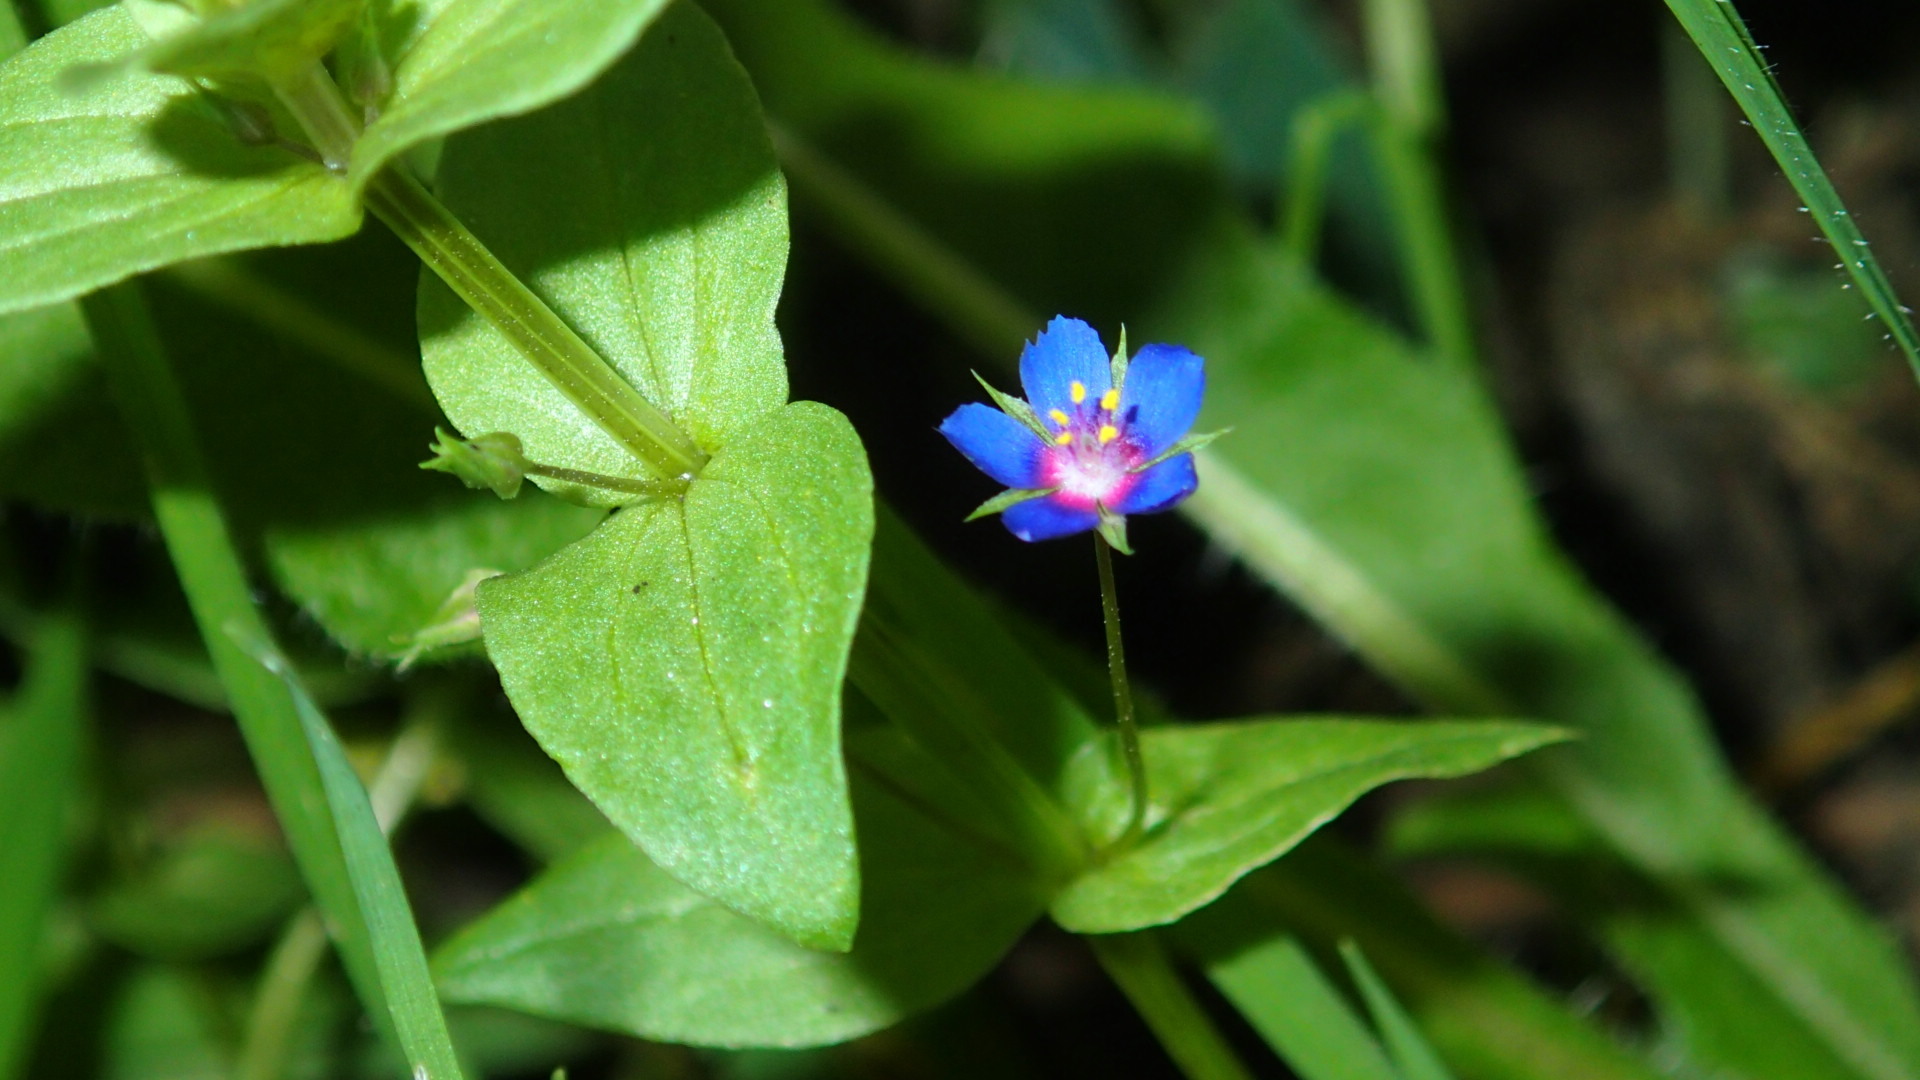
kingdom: Plantae
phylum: Tracheophyta
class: Magnoliopsida
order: Ericales
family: Primulaceae
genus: Lysimachia
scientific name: Lysimachia foemina
